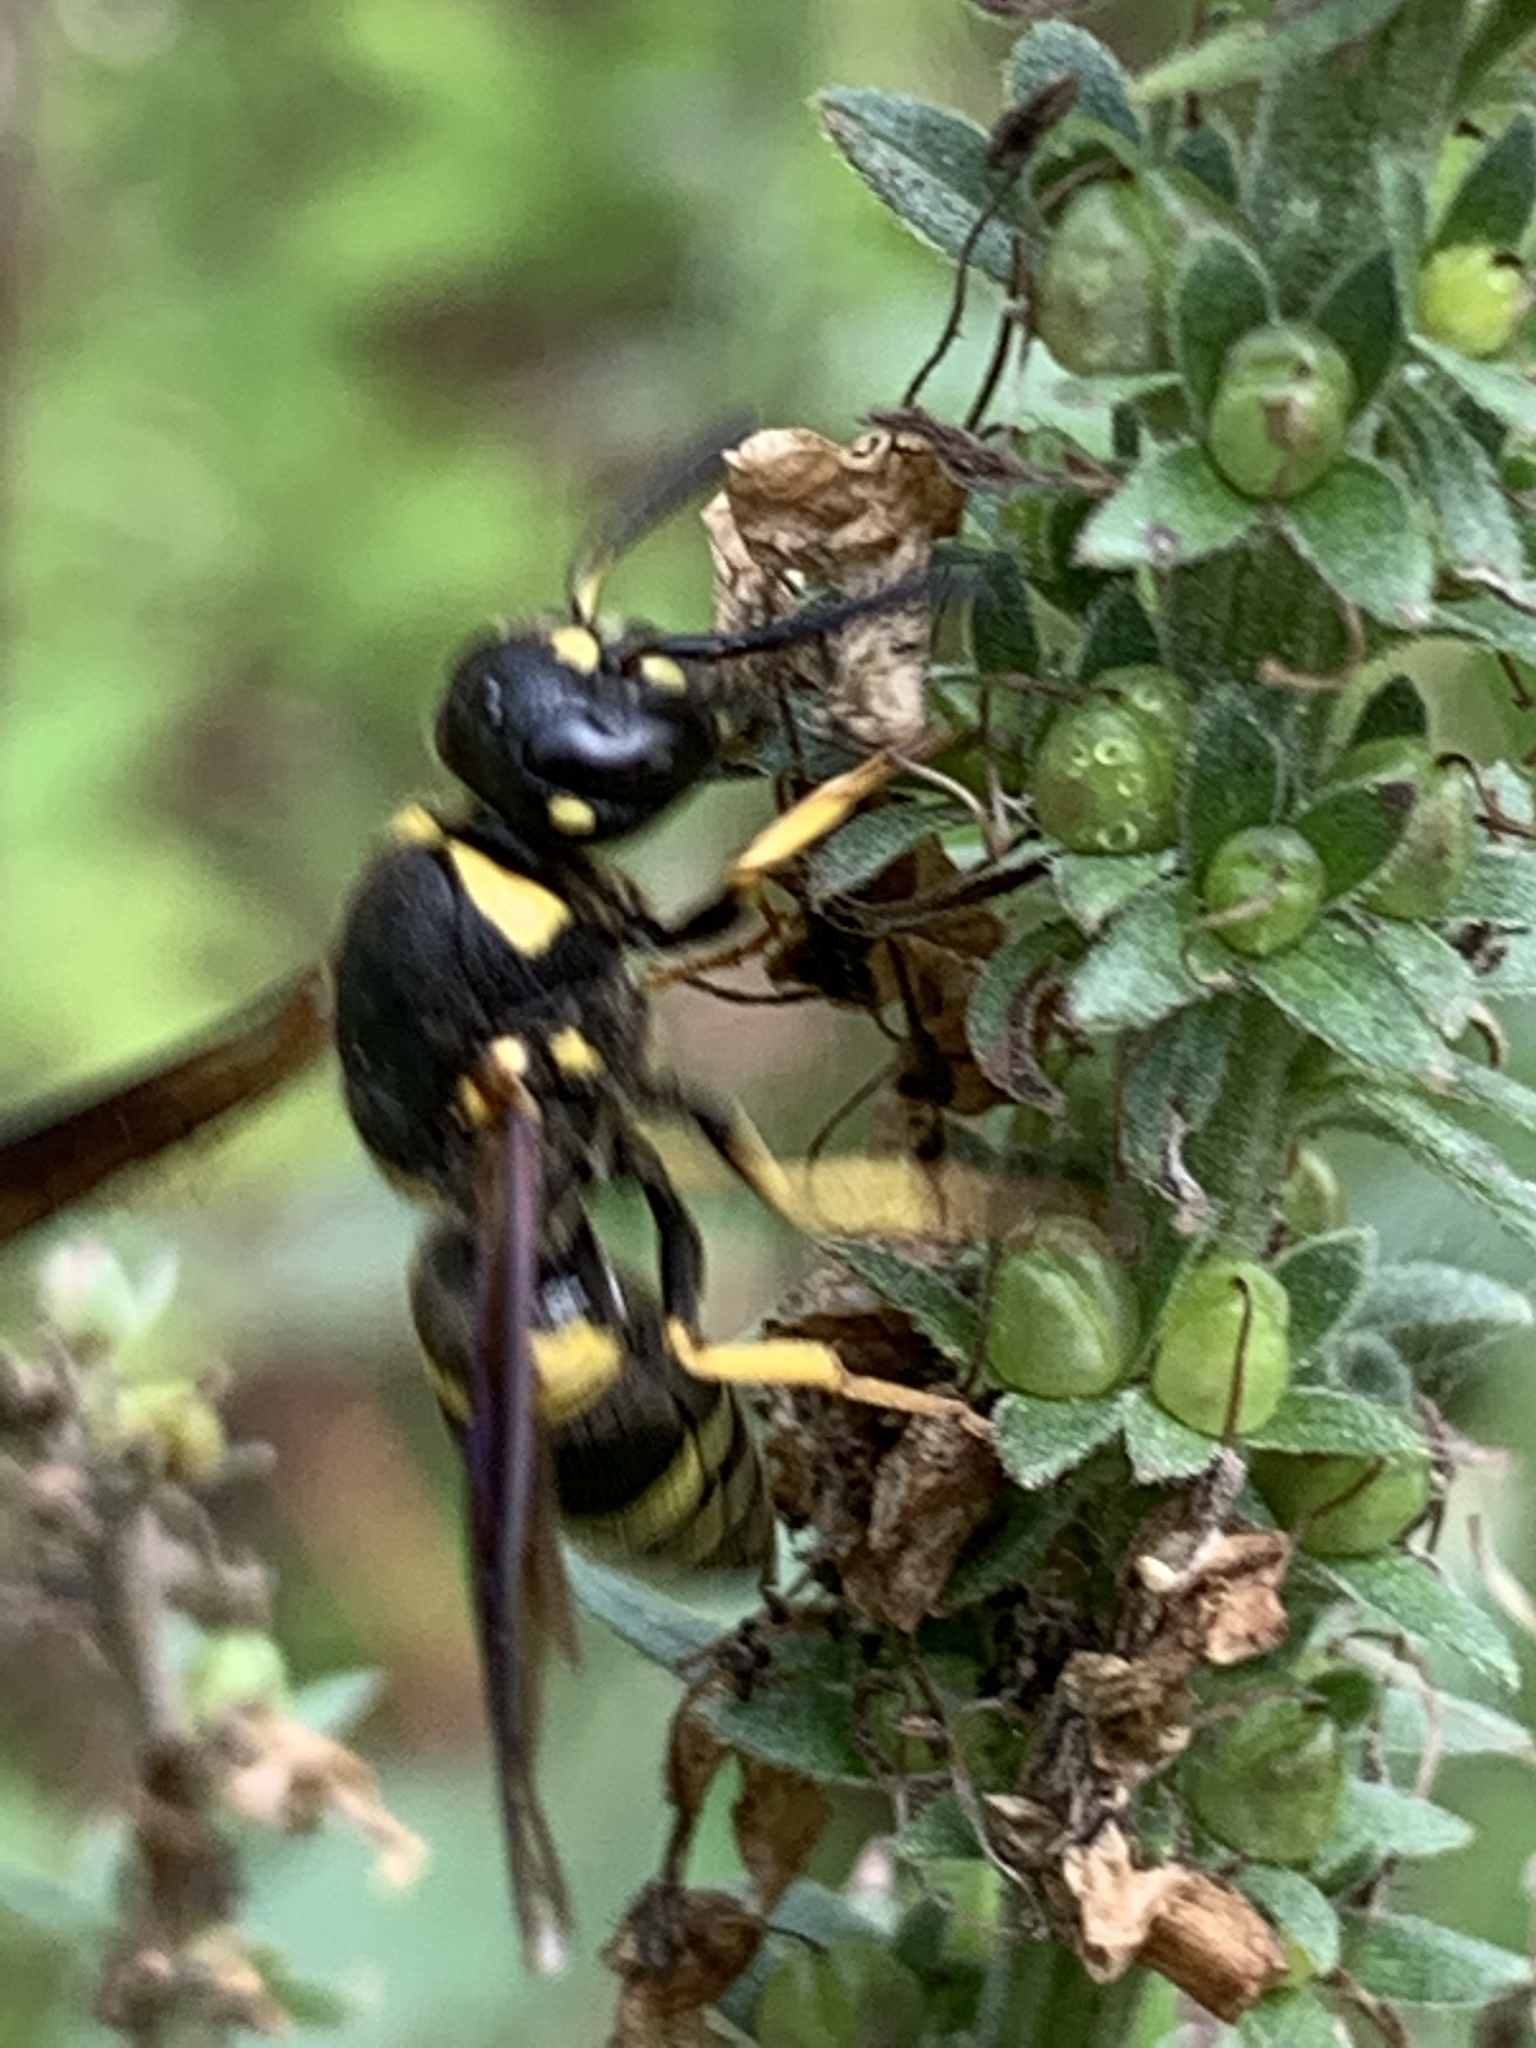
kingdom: Animalia
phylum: Arthropoda
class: Insecta
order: Hymenoptera
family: Eumenidae
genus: Euodynerus
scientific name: Euodynerus foraminatus
